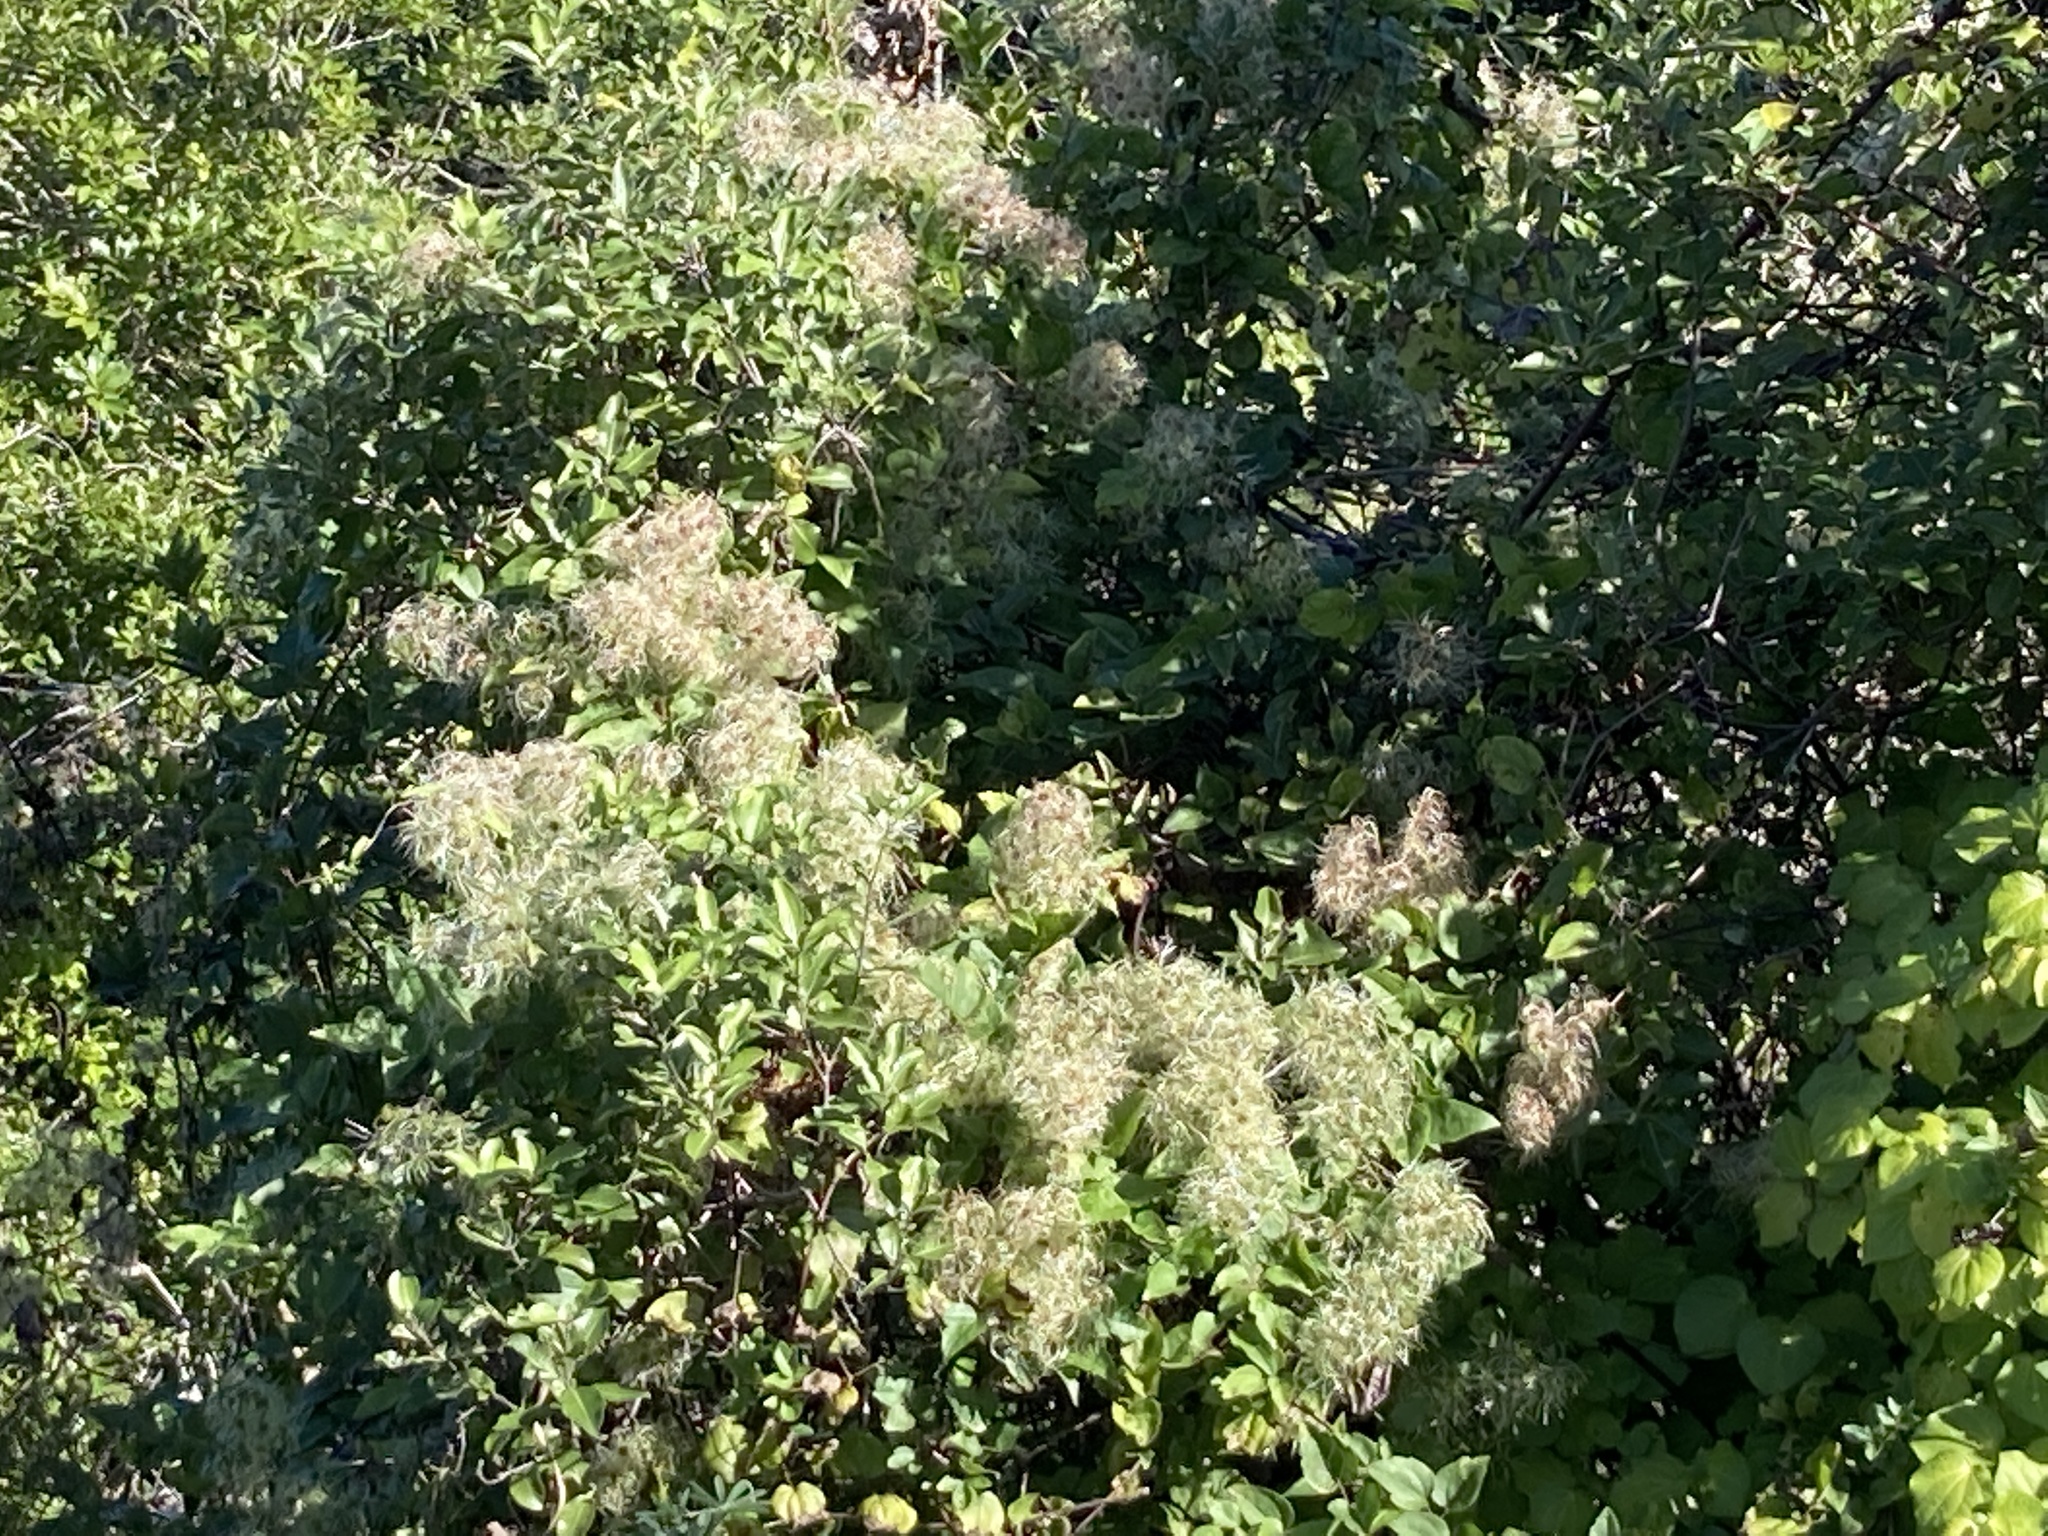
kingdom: Plantae
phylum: Tracheophyta
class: Magnoliopsida
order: Ranunculales
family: Ranunculaceae
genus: Clematis
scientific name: Clematis vitalba
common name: Evergreen clematis
